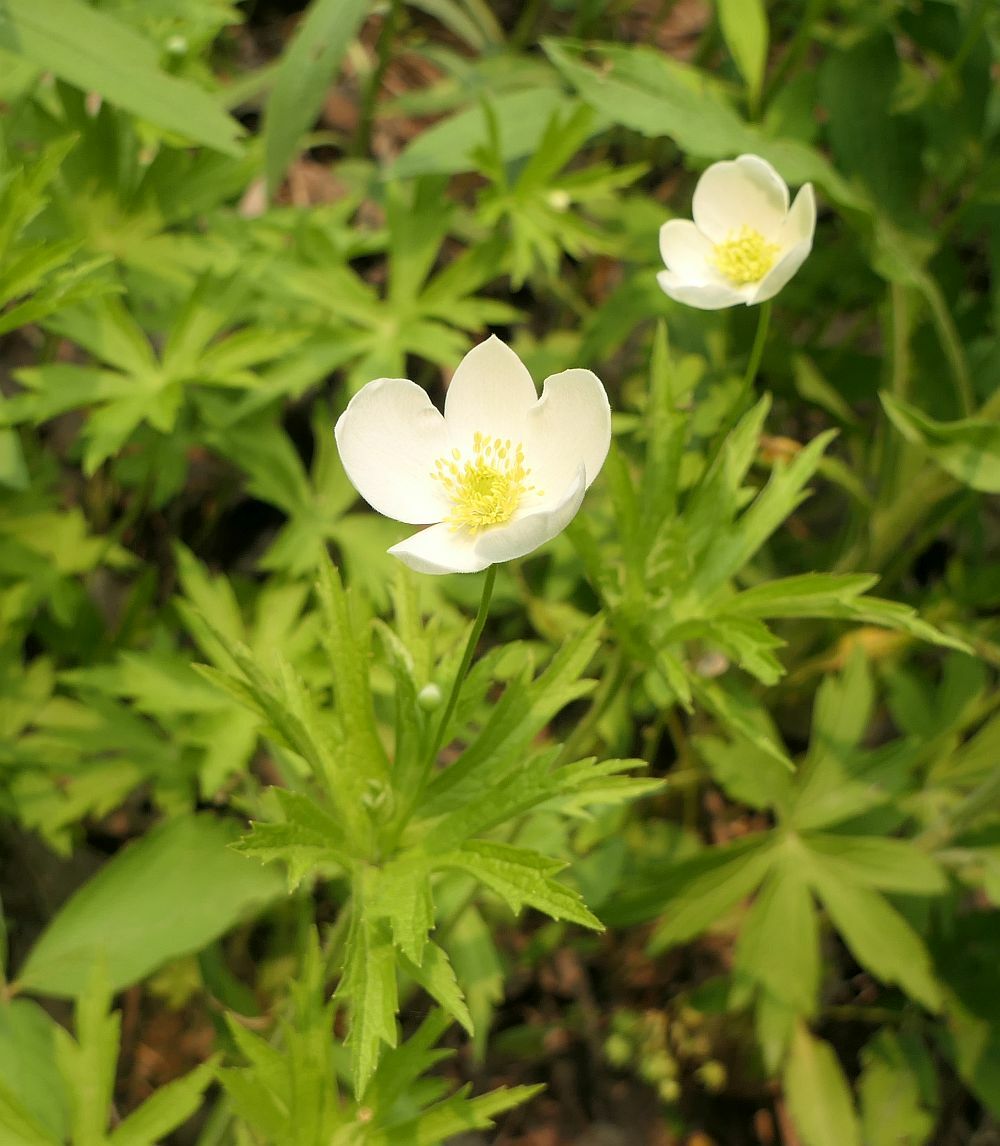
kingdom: Plantae
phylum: Tracheophyta
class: Magnoliopsida
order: Ranunculales
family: Ranunculaceae
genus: Anemonastrum
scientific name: Anemonastrum canadense
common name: Canada anemone
